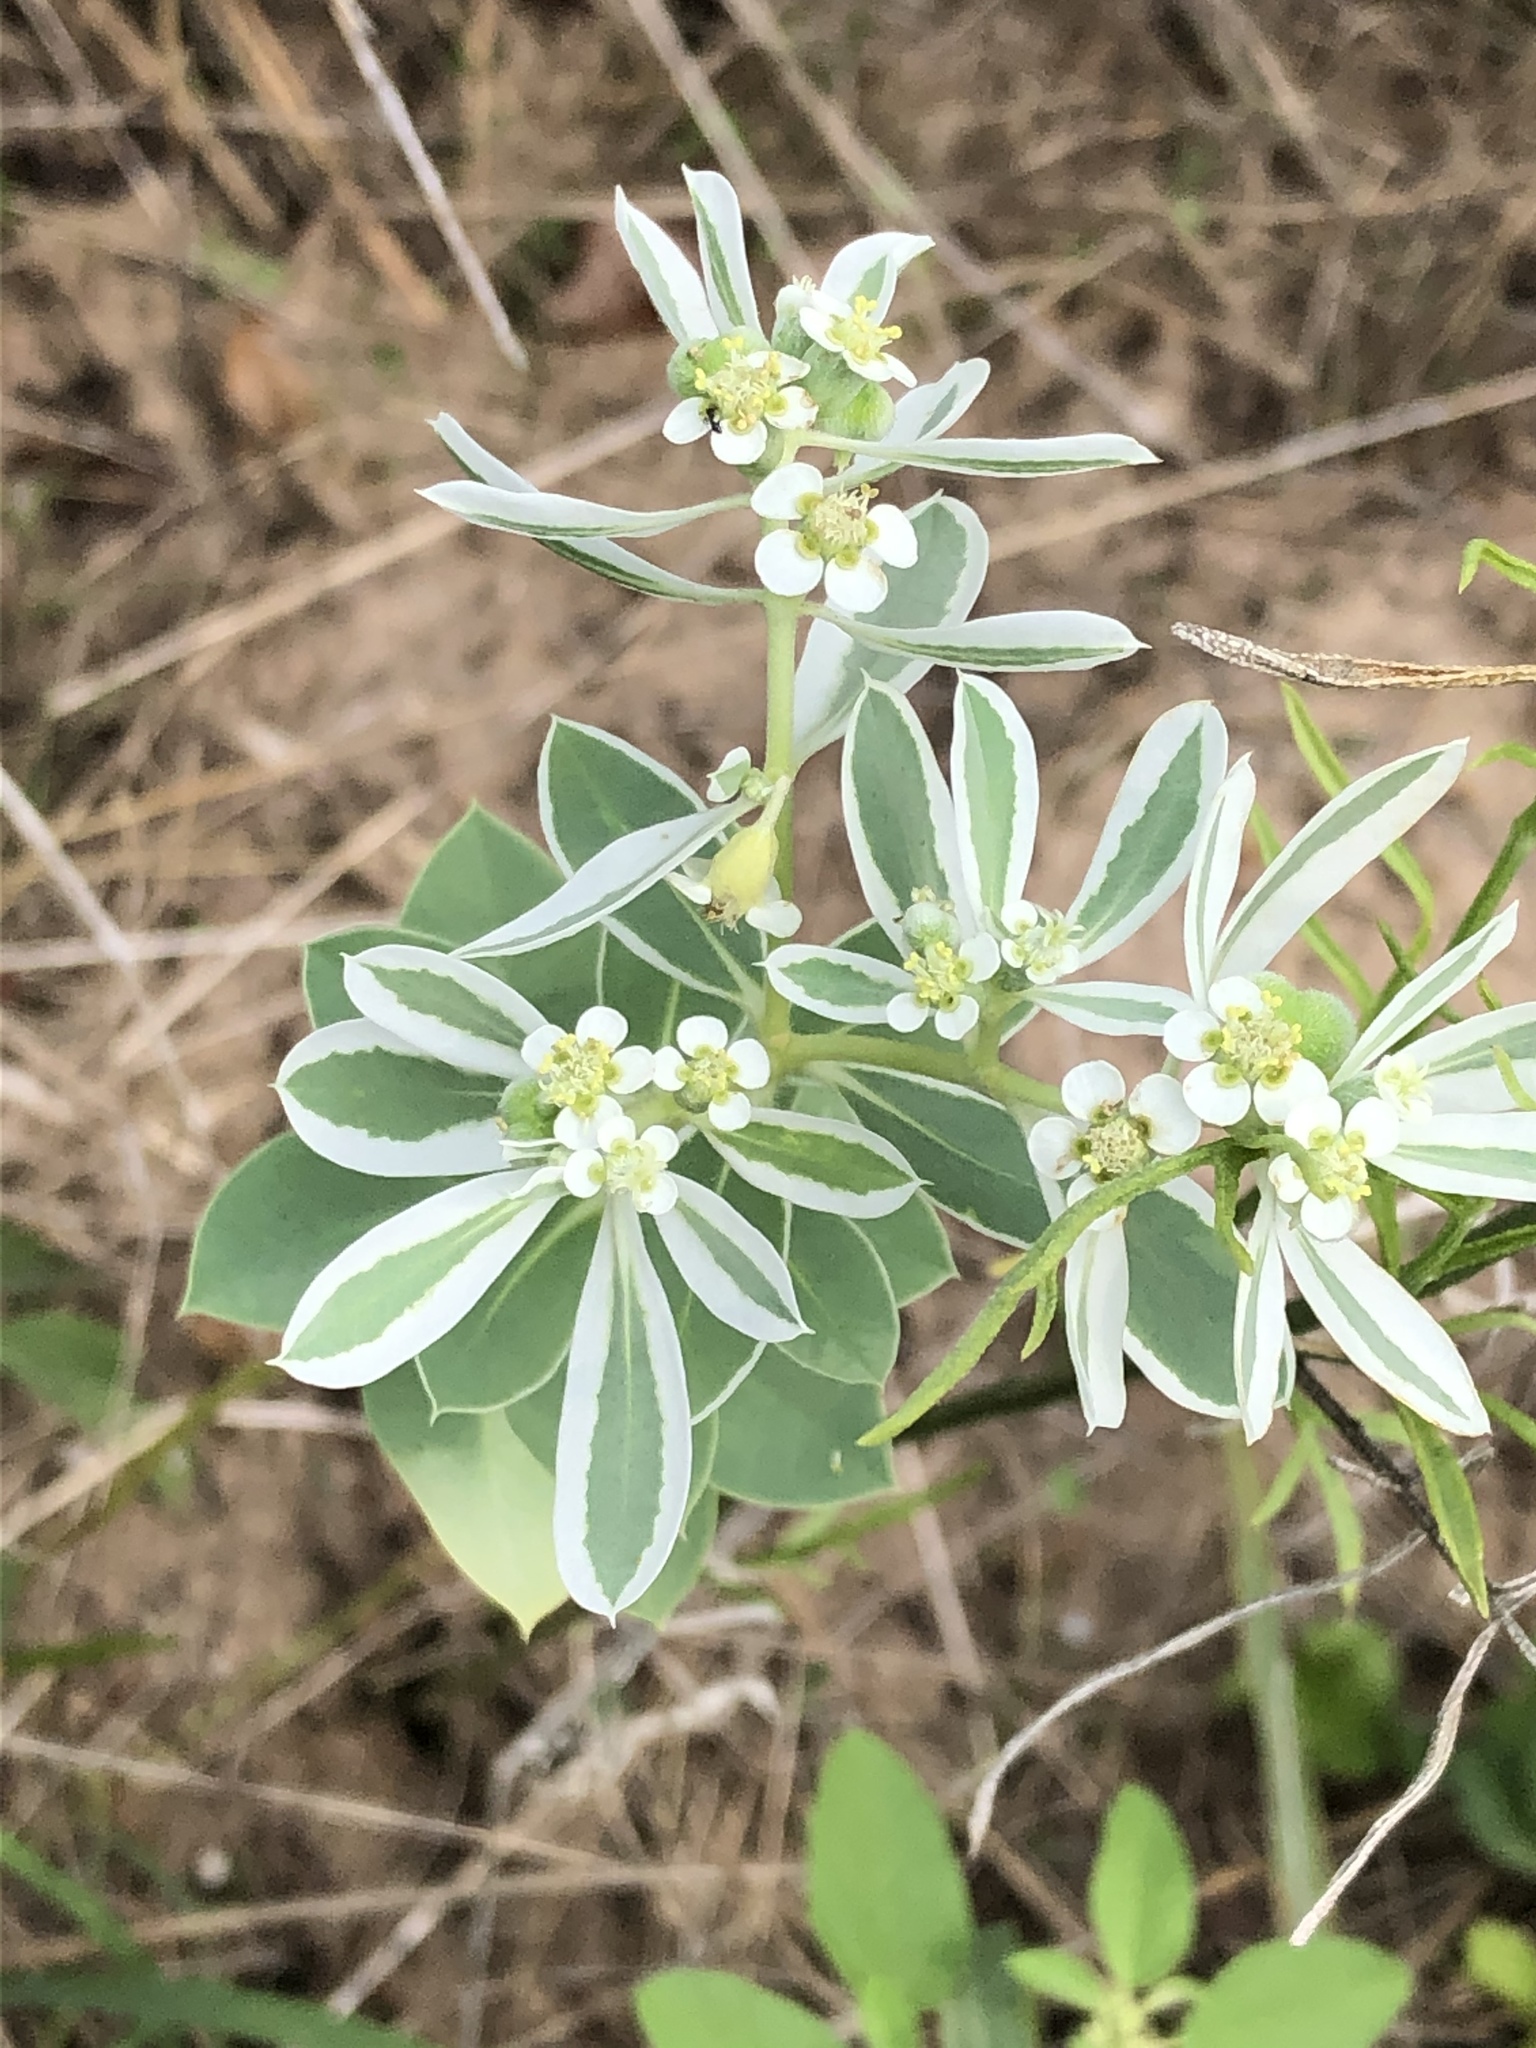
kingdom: Plantae
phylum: Tracheophyta
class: Magnoliopsida
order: Malpighiales
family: Euphorbiaceae
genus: Euphorbia
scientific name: Euphorbia marginata
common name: Ghostweed
